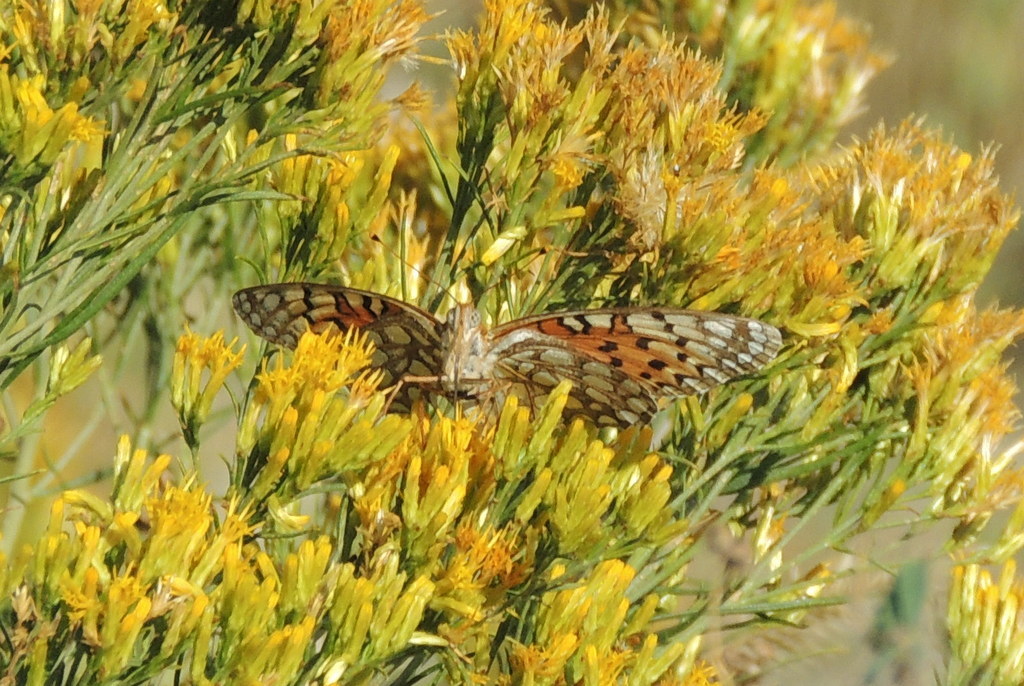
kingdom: Animalia
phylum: Arthropoda
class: Insecta
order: Lepidoptera
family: Nymphalidae
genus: Speyeria
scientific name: Speyeria edwardsii
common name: Edwards' fritillary
